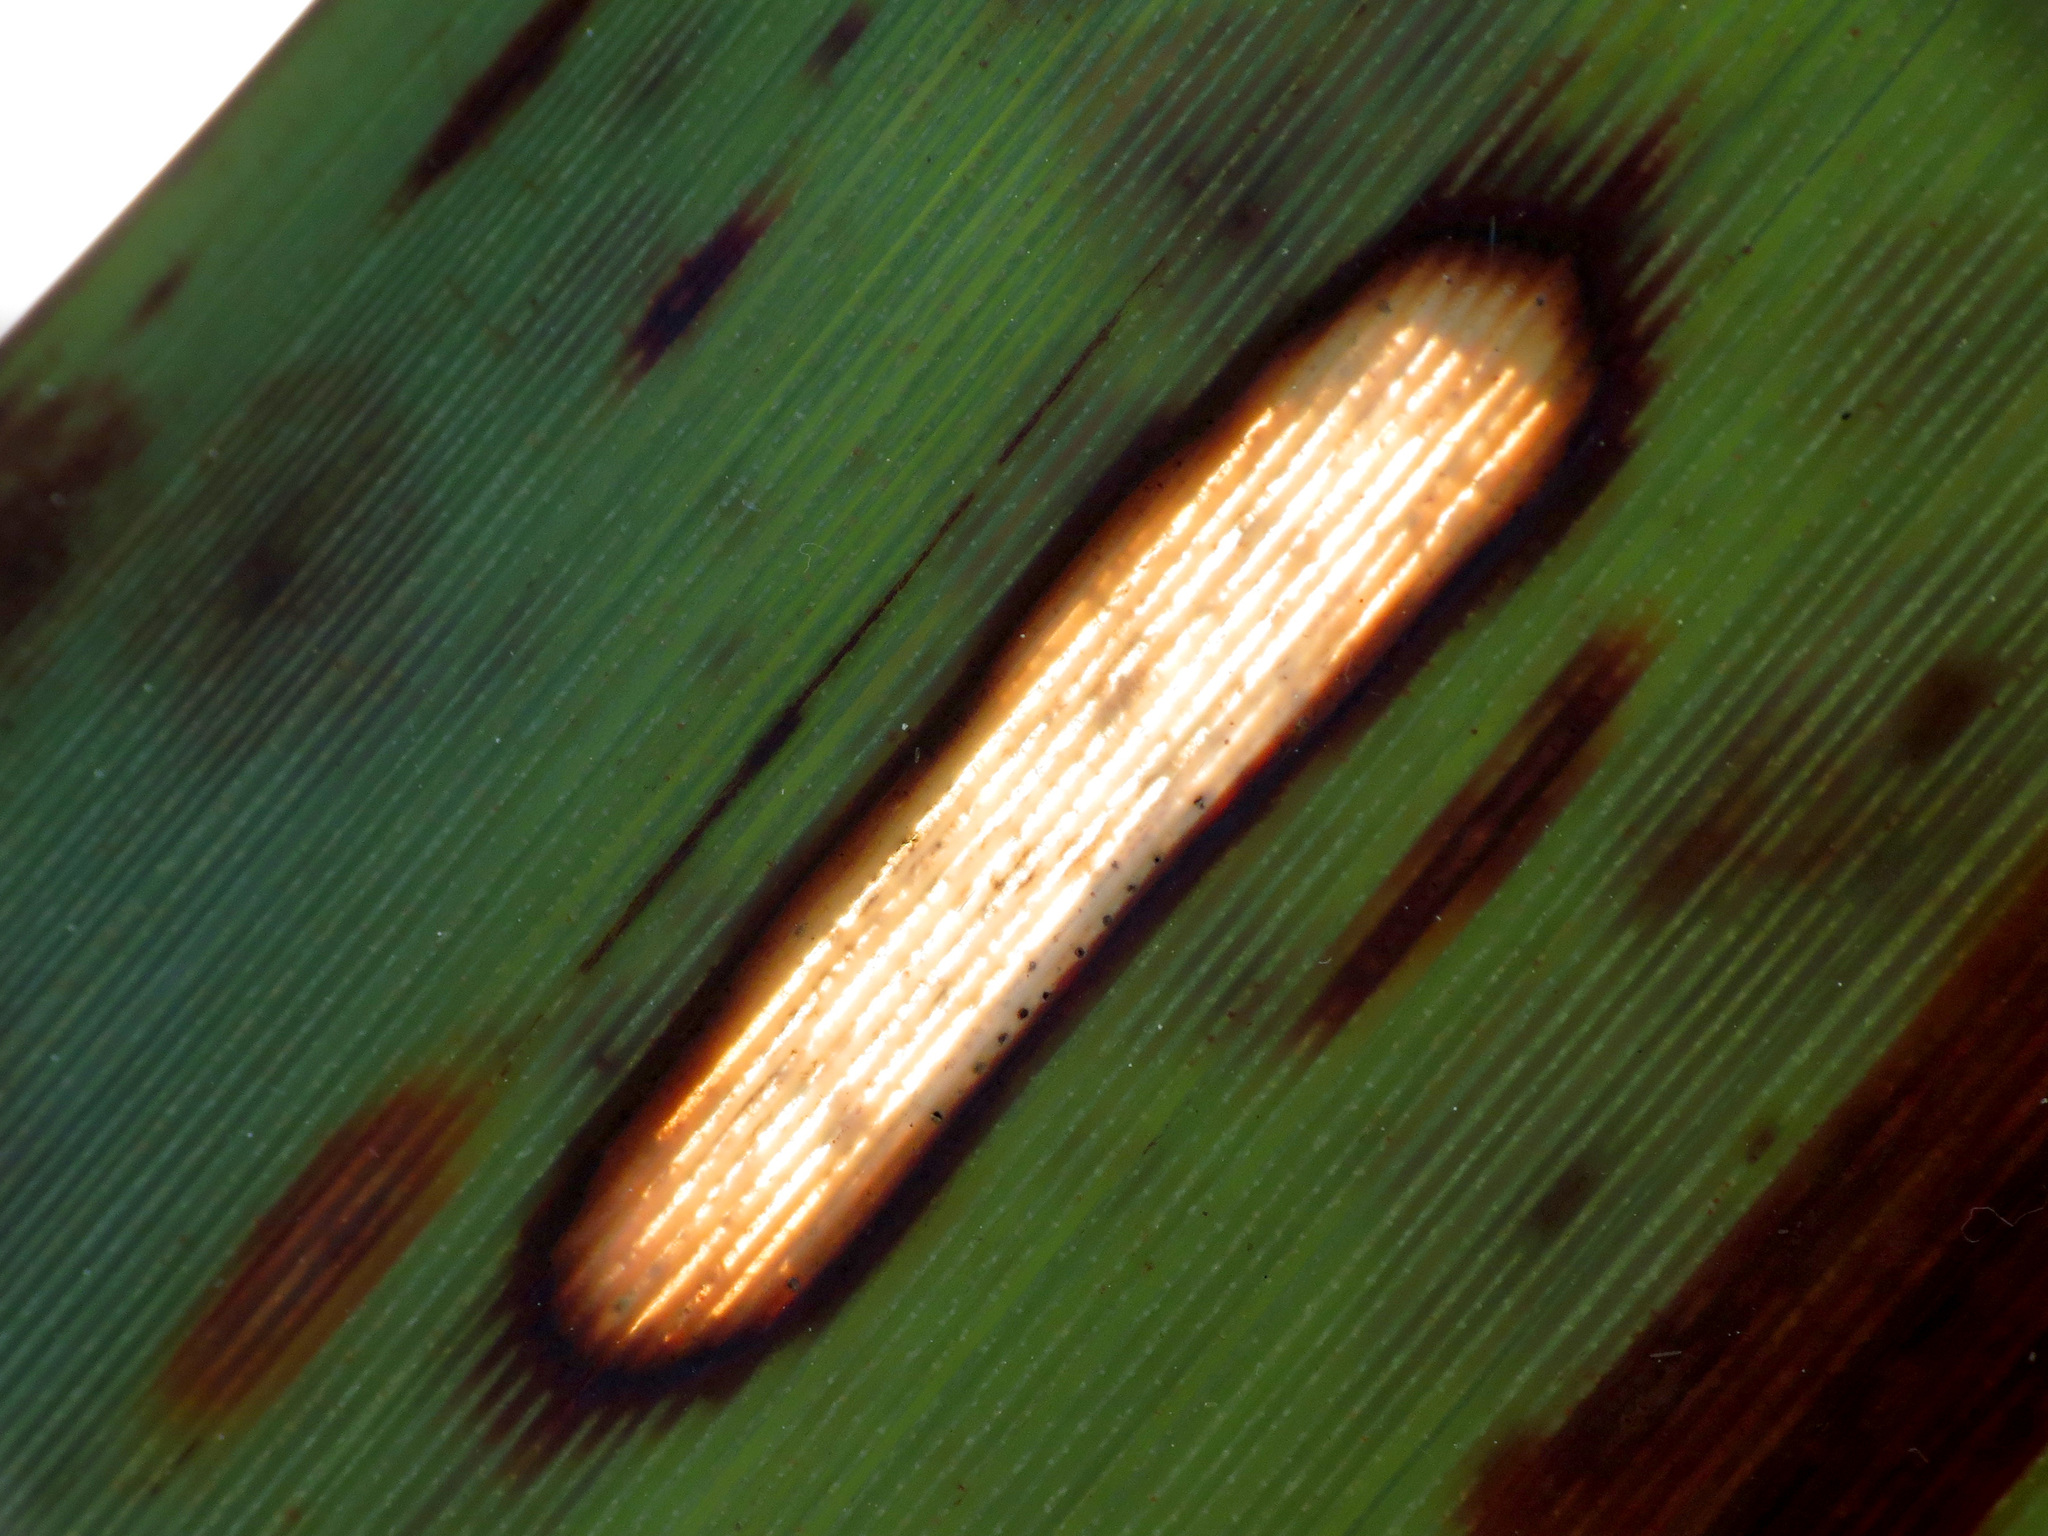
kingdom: Animalia
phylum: Arthropoda
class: Insecta
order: Lepidoptera
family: Geometridae
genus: Orthoclydon
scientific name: Orthoclydon praefectata
